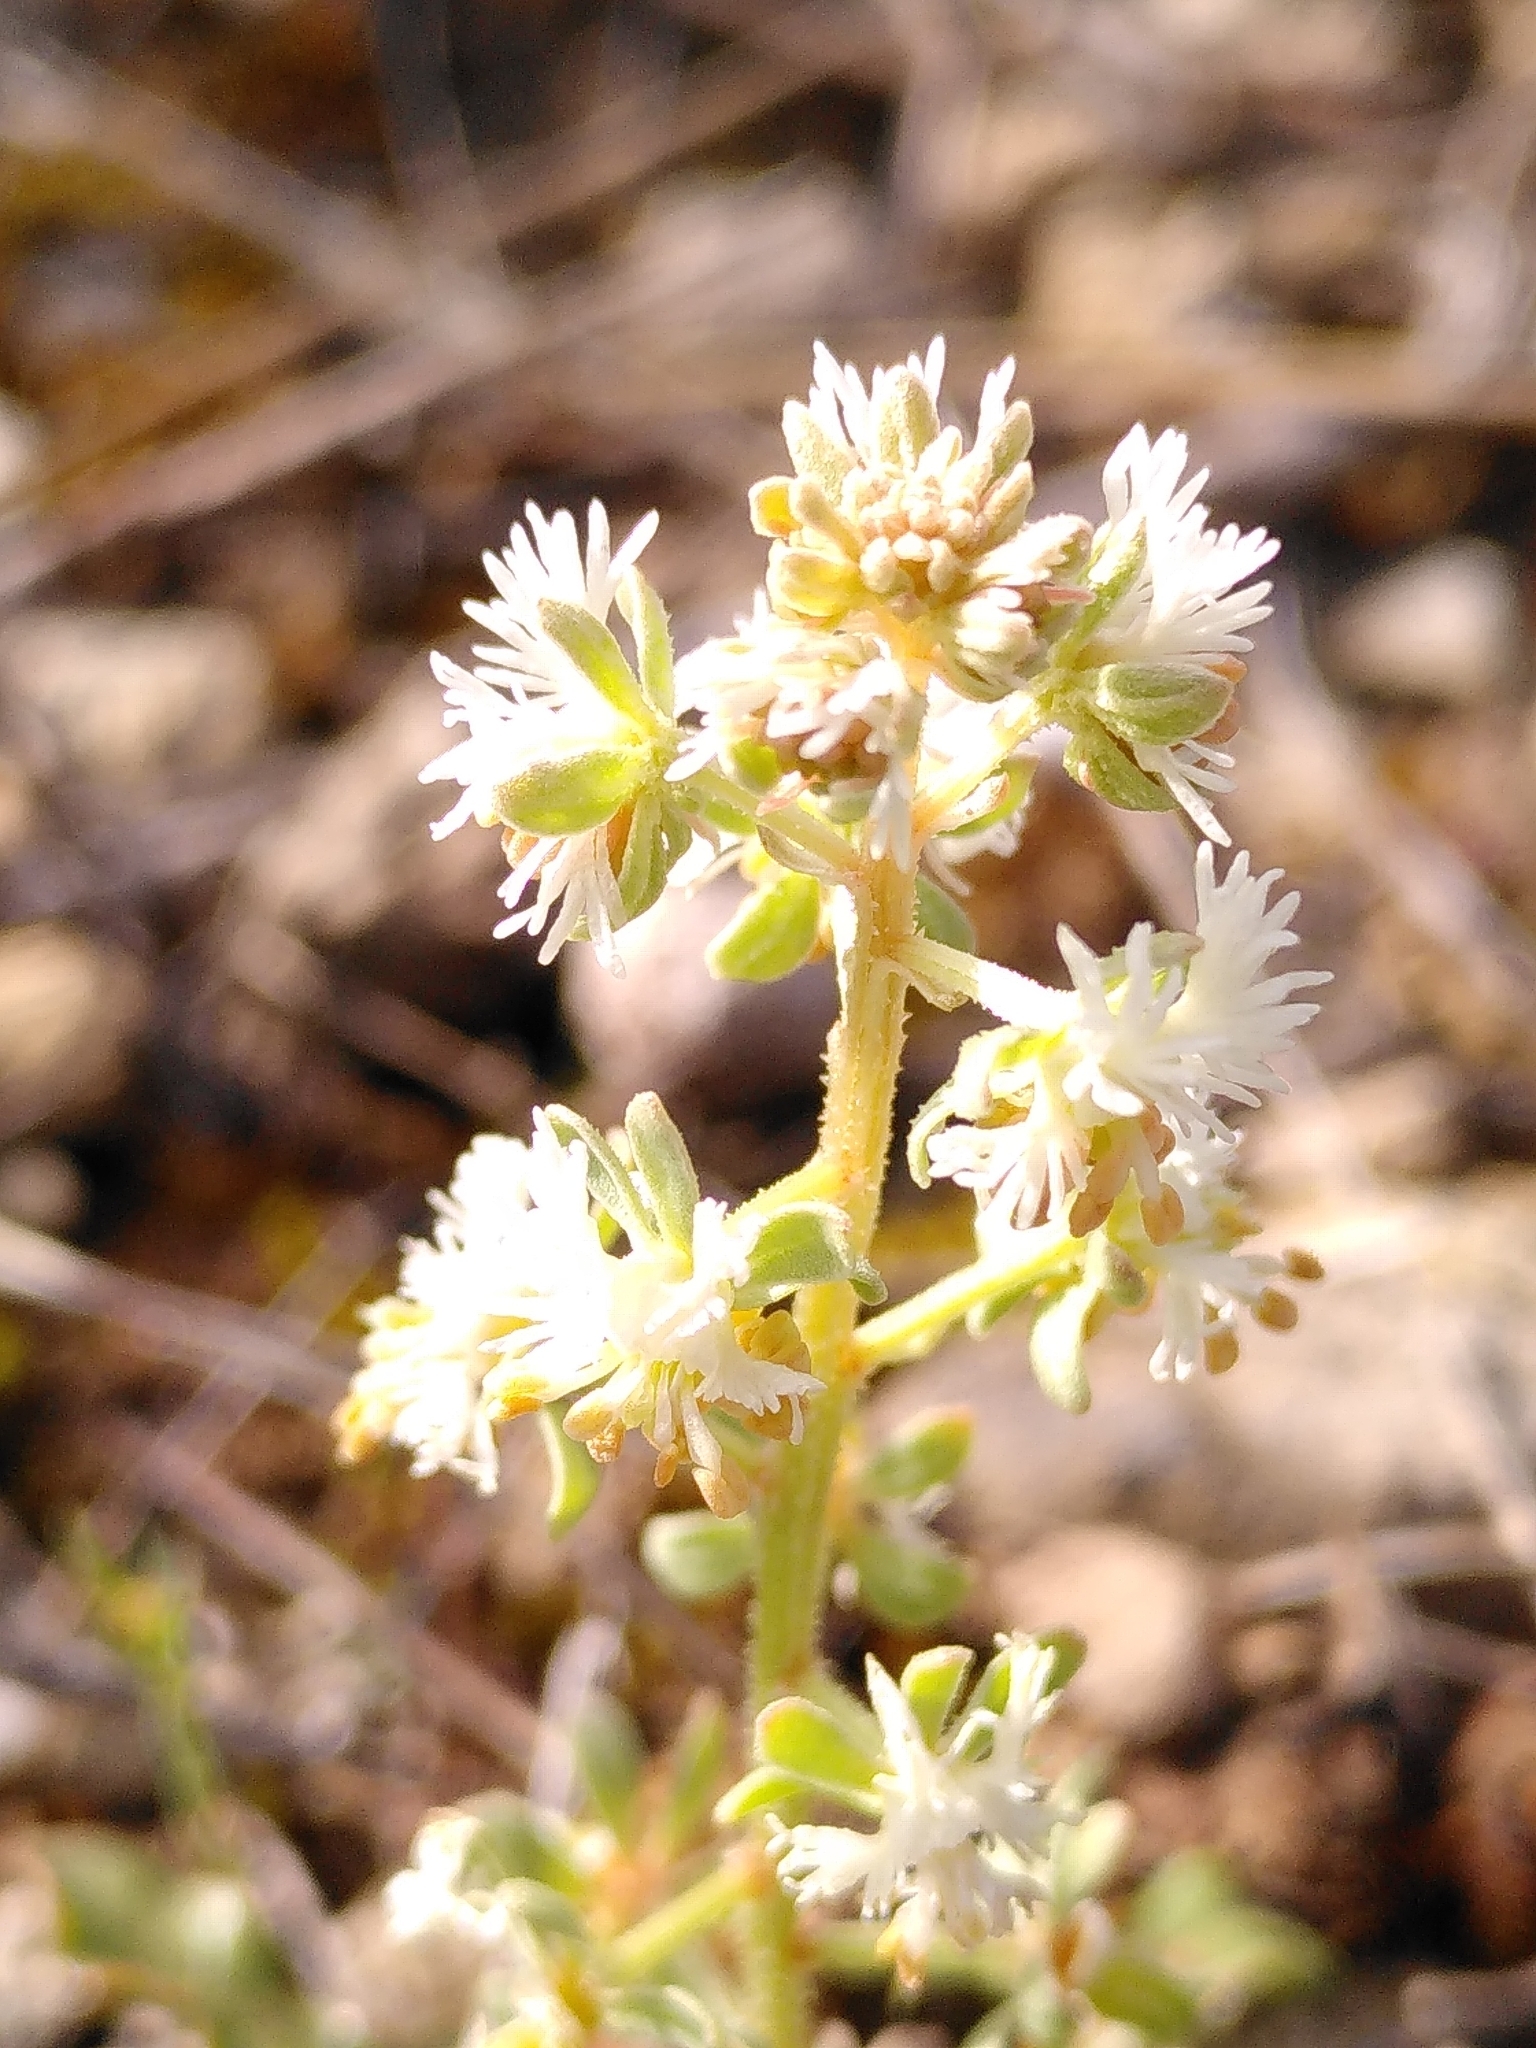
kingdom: Plantae
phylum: Tracheophyta
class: Magnoliopsida
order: Brassicales
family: Resedaceae
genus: Reseda
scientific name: Reseda phyteuma
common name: Corn mignonette
